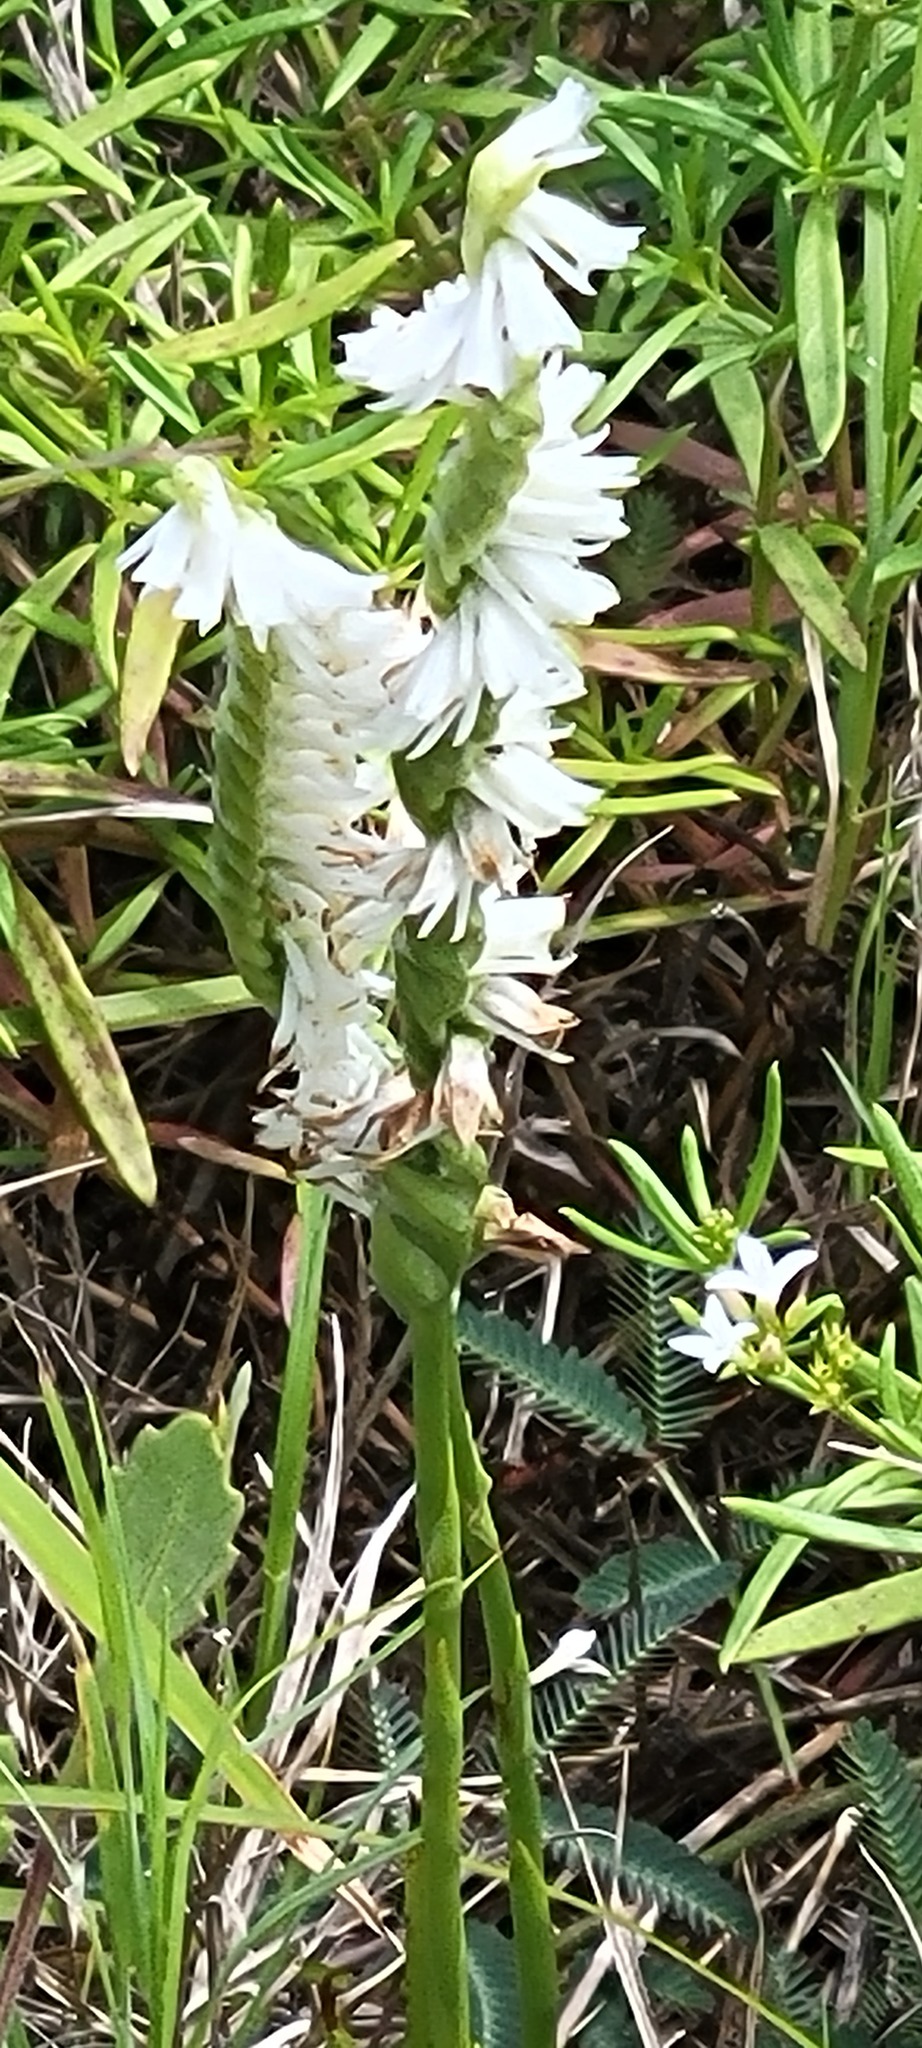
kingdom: Plantae
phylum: Tracheophyta
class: Liliopsida
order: Asparagales
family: Orchidaceae
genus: Spiranthes
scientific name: Spiranthes vernalis
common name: Spring ladies'-tresses
